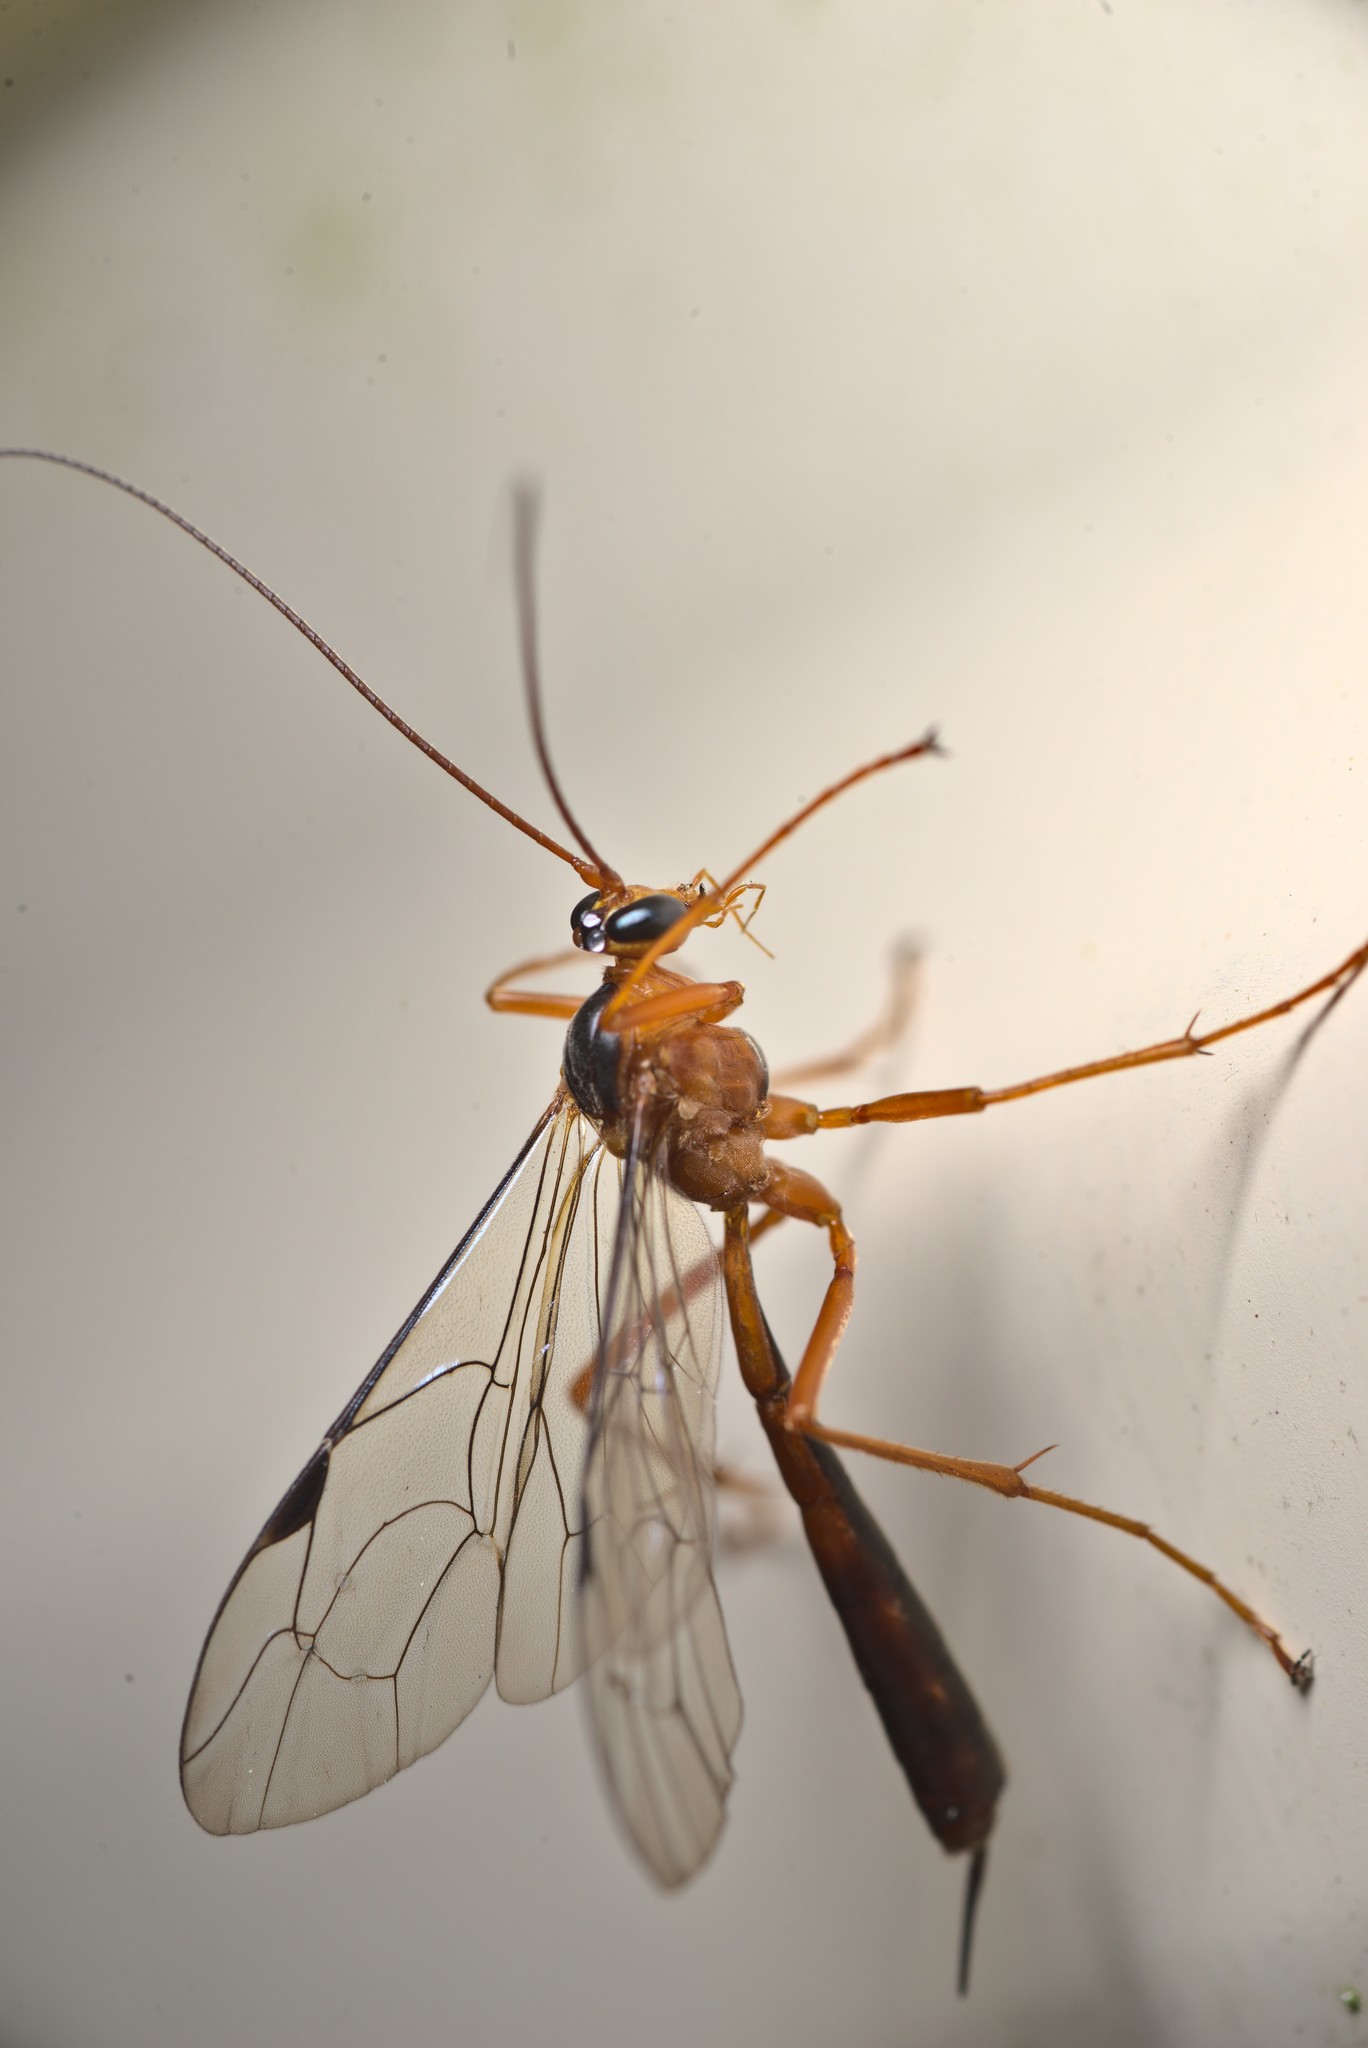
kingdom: Animalia
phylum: Arthropoda
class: Insecta
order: Hymenoptera
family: Ichneumonidae
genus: Netelia
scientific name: Netelia ephippiata
